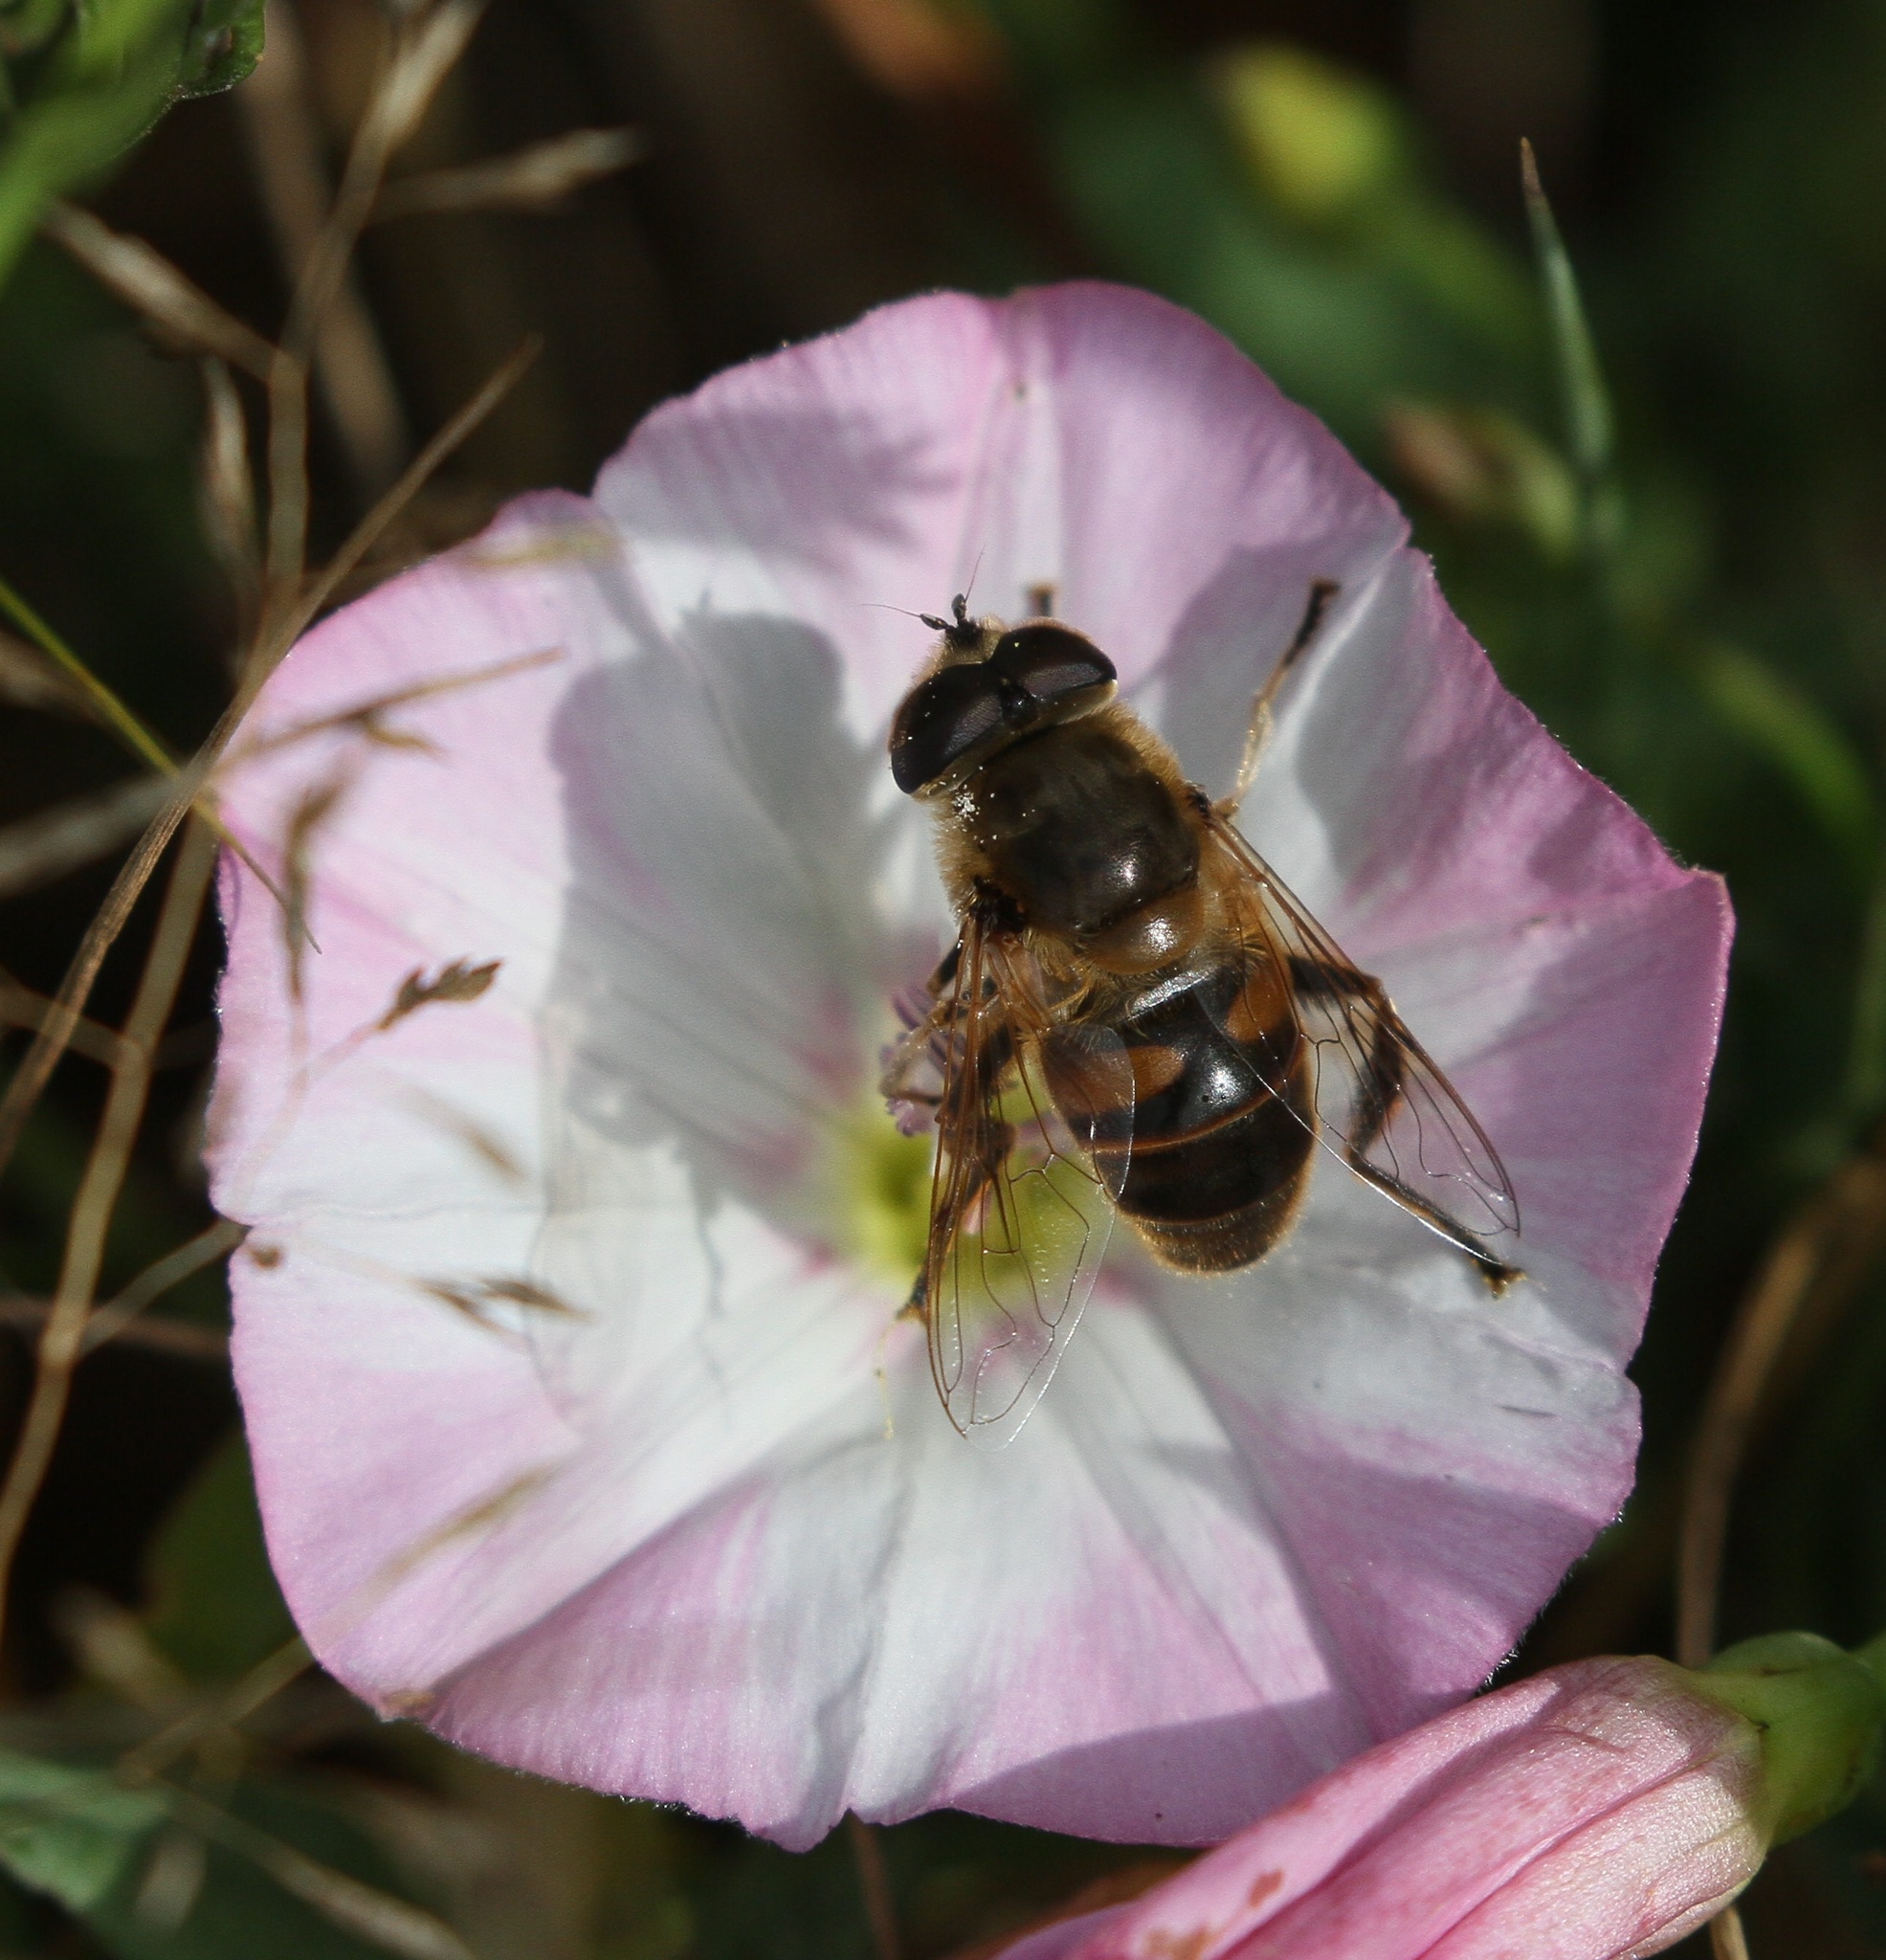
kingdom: Animalia
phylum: Arthropoda
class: Insecta
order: Diptera
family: Syrphidae
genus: Eristalis
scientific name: Eristalis tenax
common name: Drone fly
